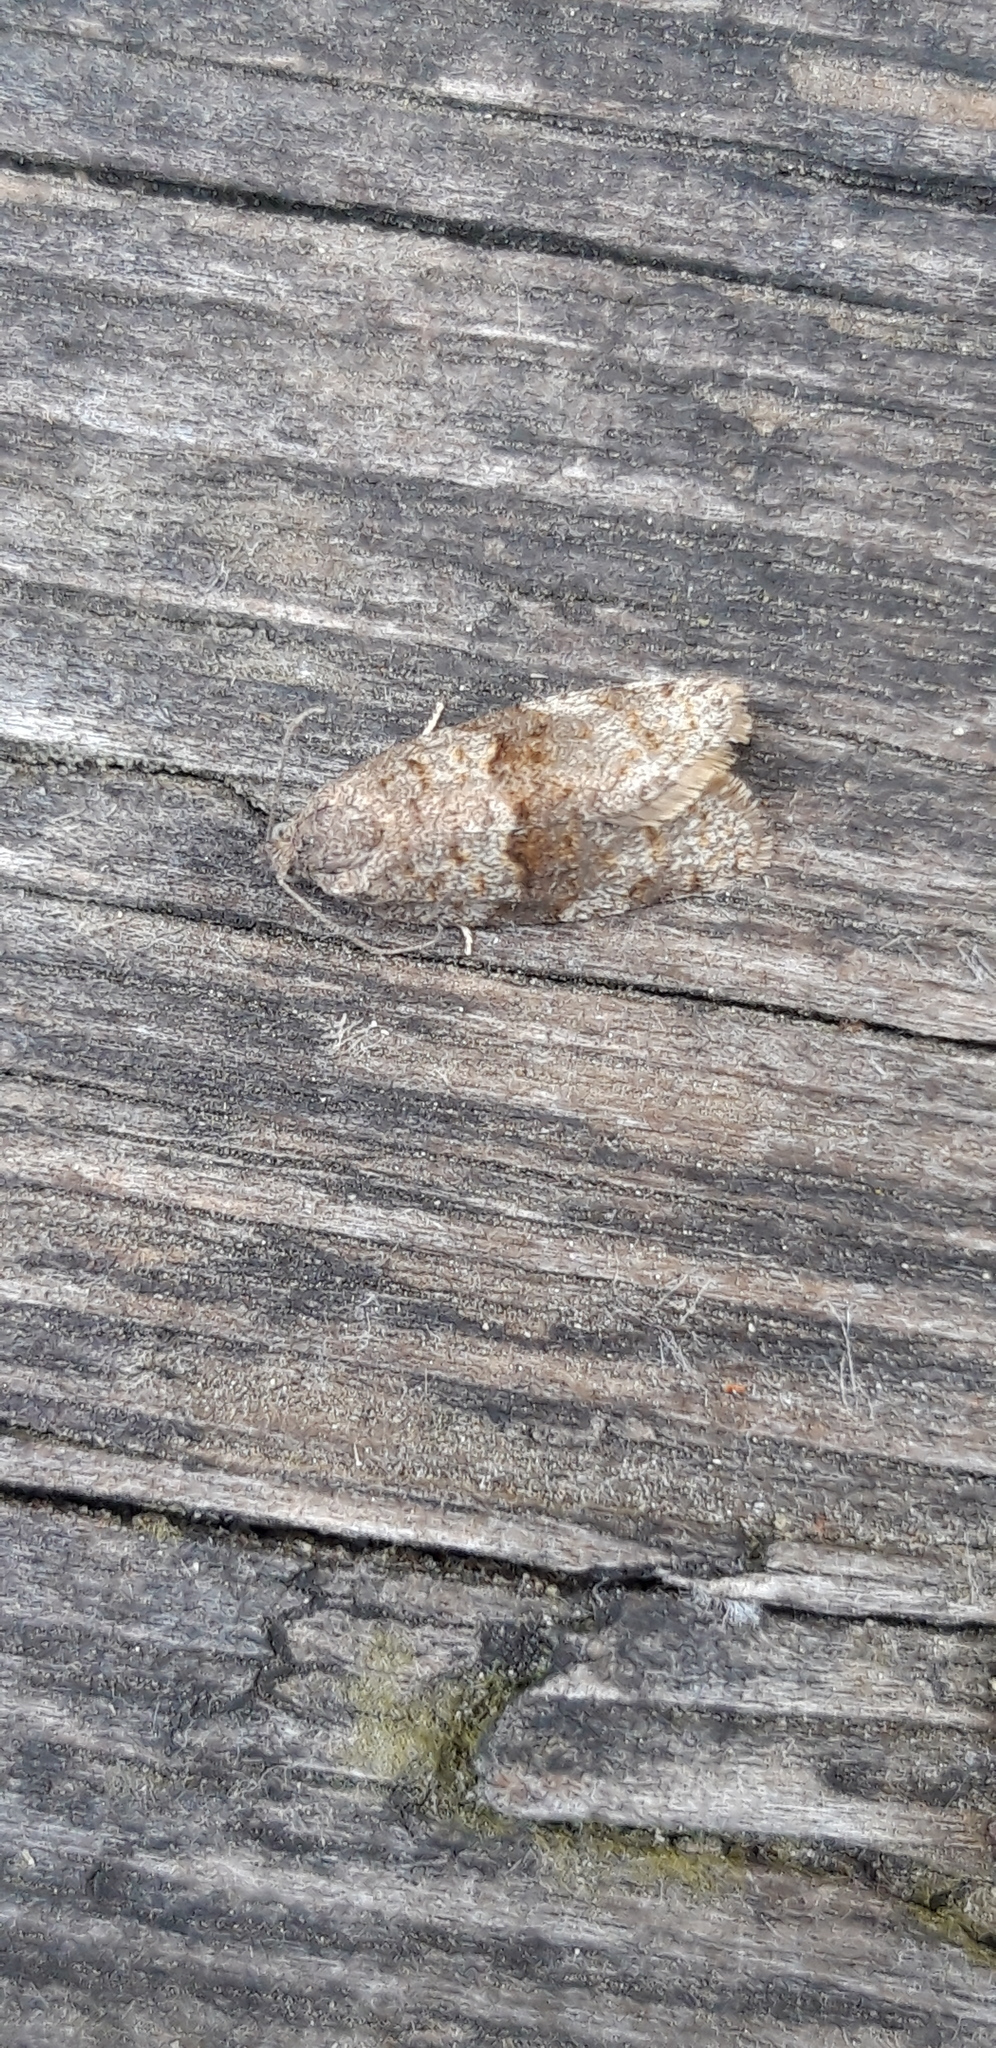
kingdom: Animalia
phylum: Arthropoda
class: Insecta
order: Lepidoptera
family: Tortricidae
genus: Syndemis
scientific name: Syndemis musculana
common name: Dark-barred twist
